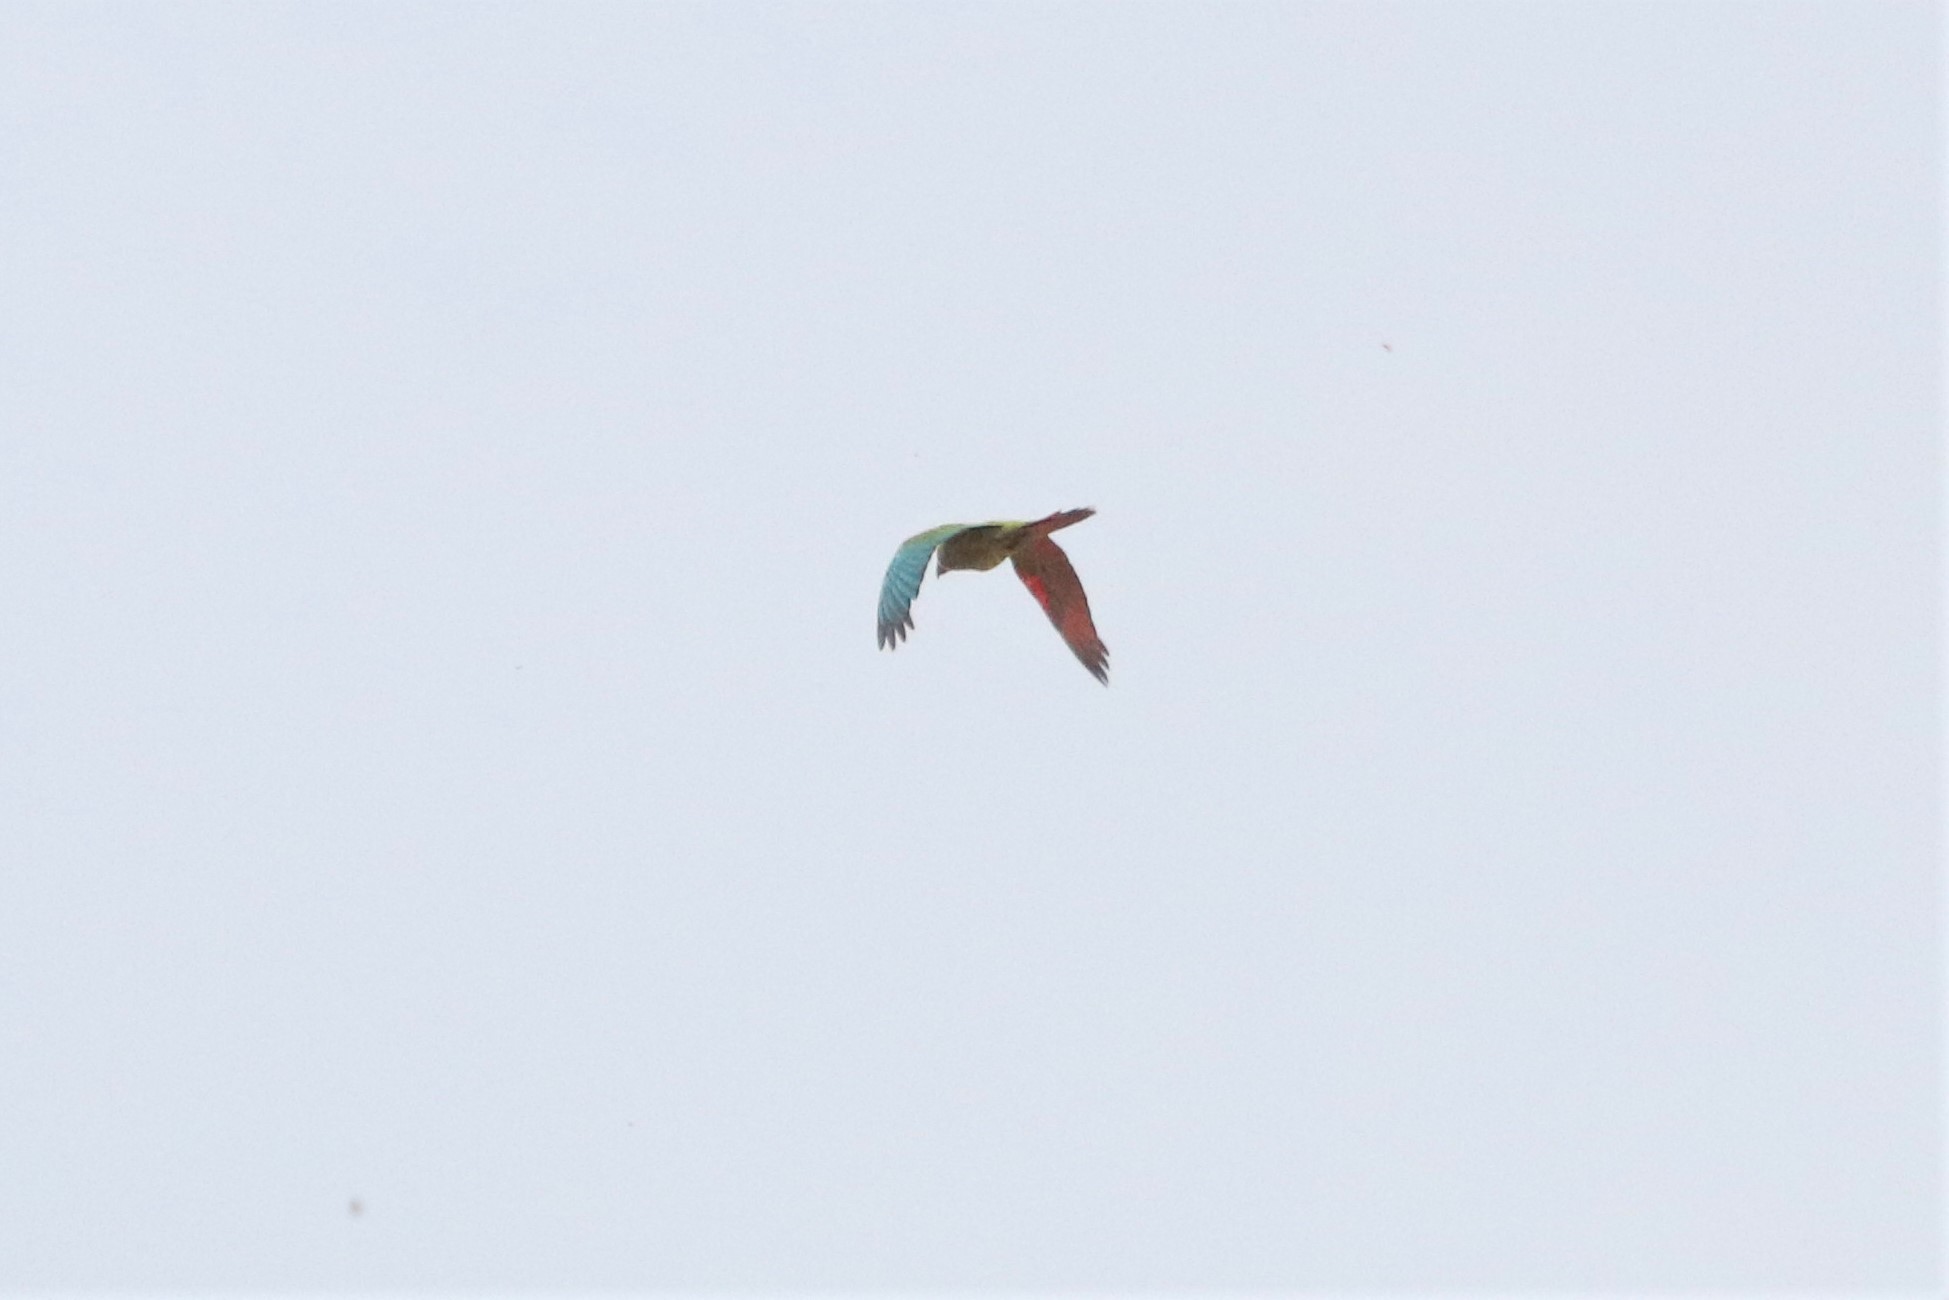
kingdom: Animalia
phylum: Chordata
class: Aves
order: Psittaciformes
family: Psittacidae
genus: Ara
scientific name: Ara severus
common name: Chestnut-fronted macaw
